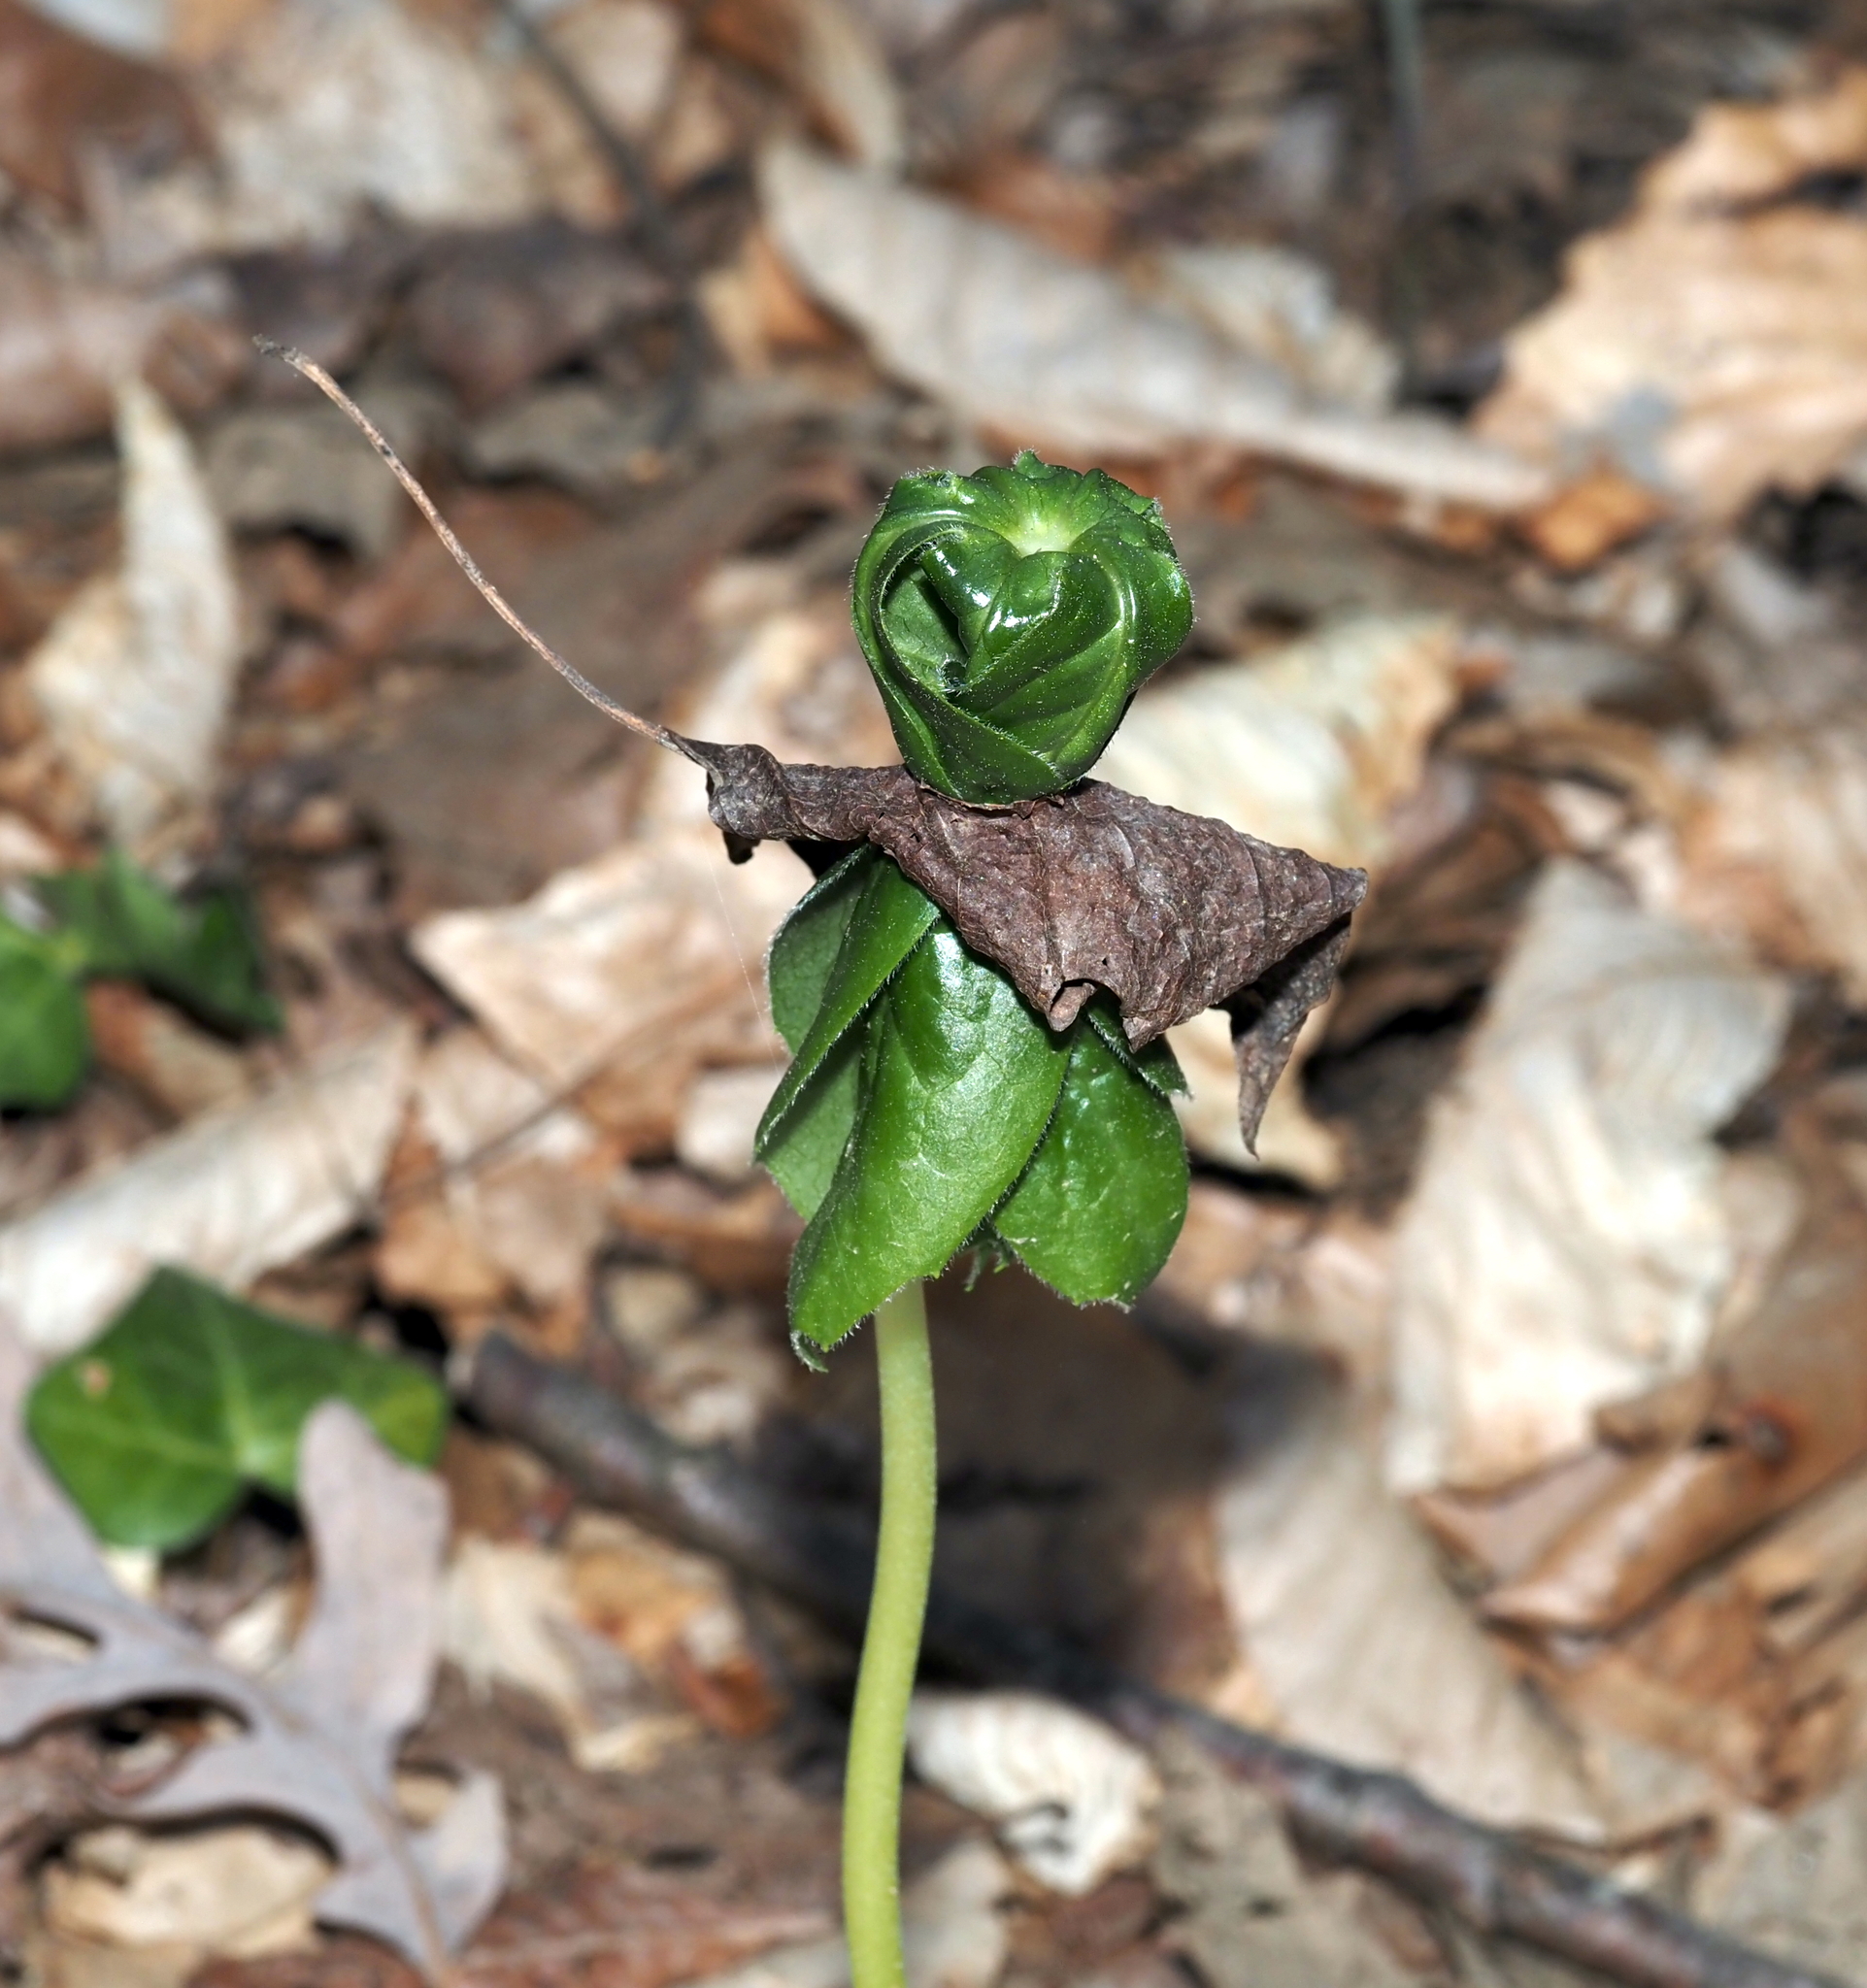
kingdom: Plantae
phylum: Tracheophyta
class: Magnoliopsida
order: Ranunculales
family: Berberidaceae
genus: Podophyllum
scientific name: Podophyllum peltatum
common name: Wild mandrake
